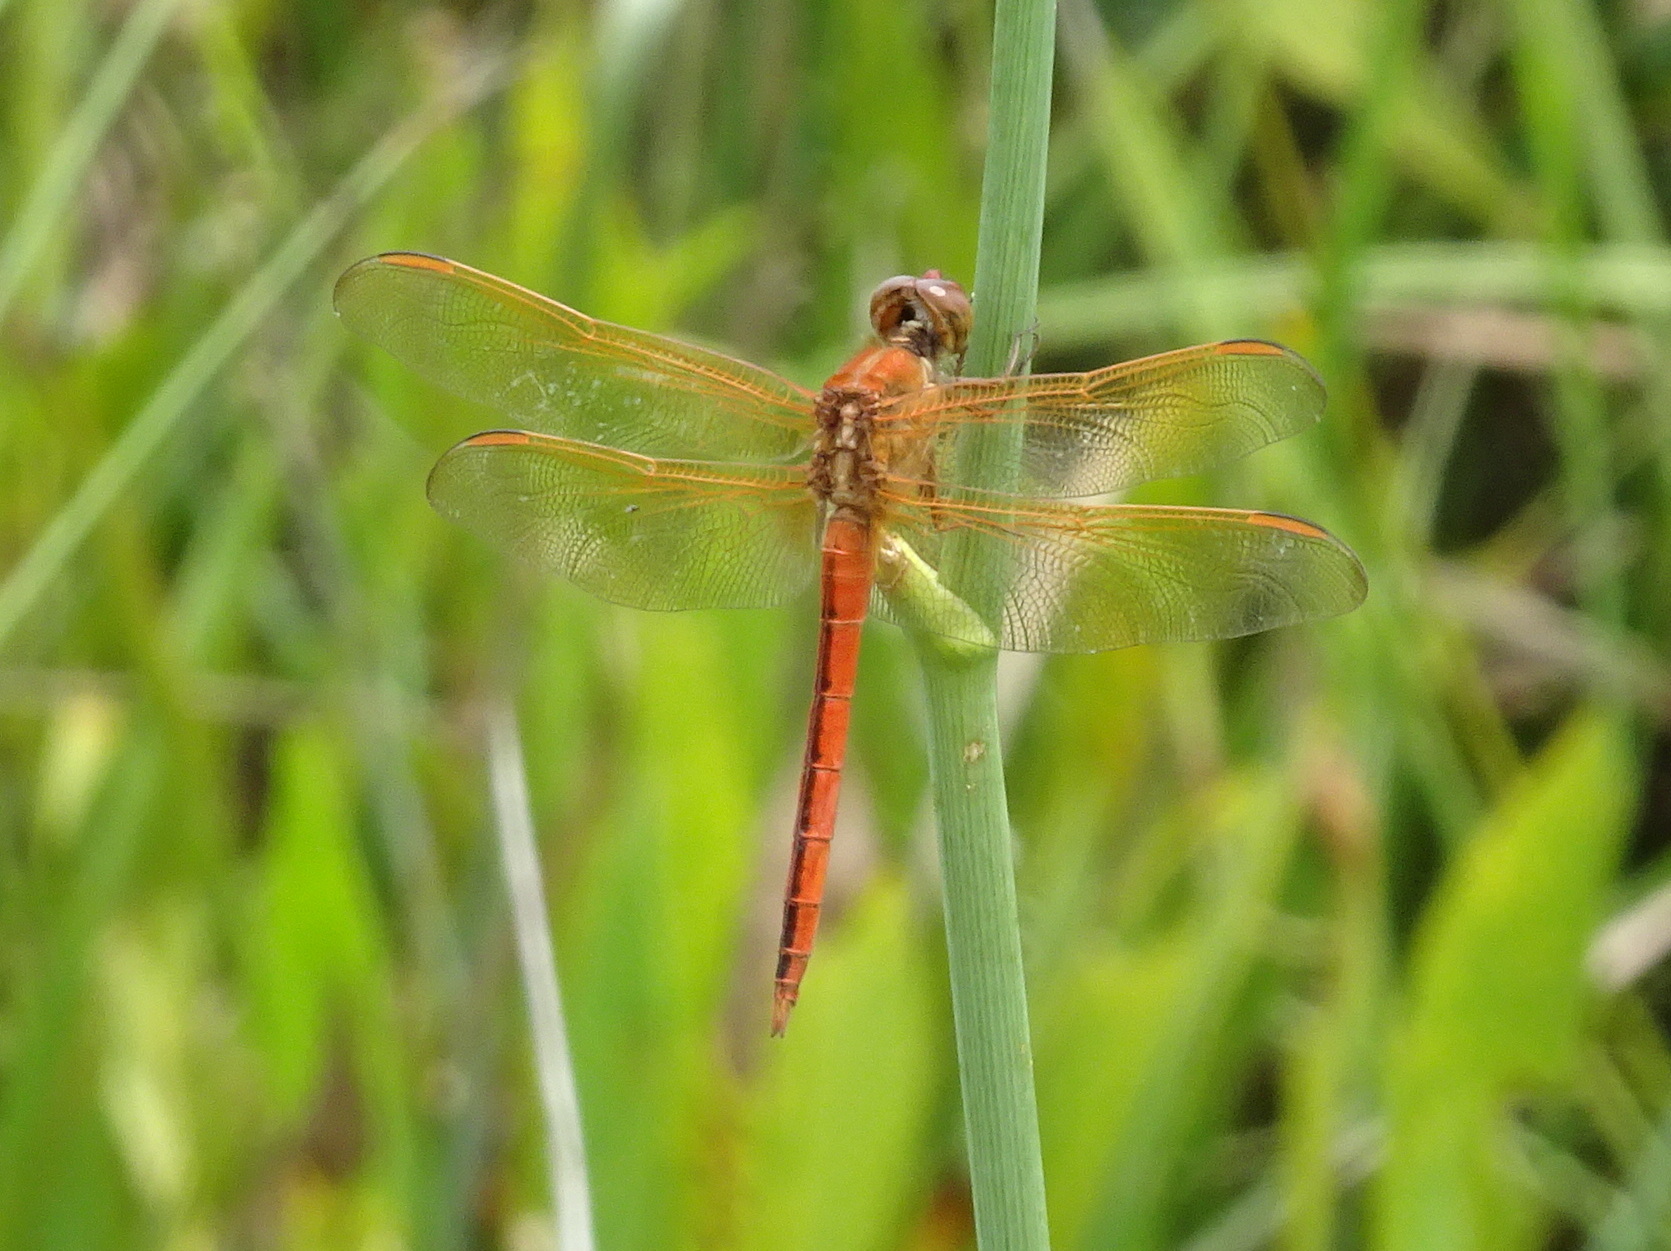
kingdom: Animalia
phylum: Arthropoda
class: Insecta
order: Odonata
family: Libellulidae
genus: Libellula
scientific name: Libellula needhami
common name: Needham's skimmer
